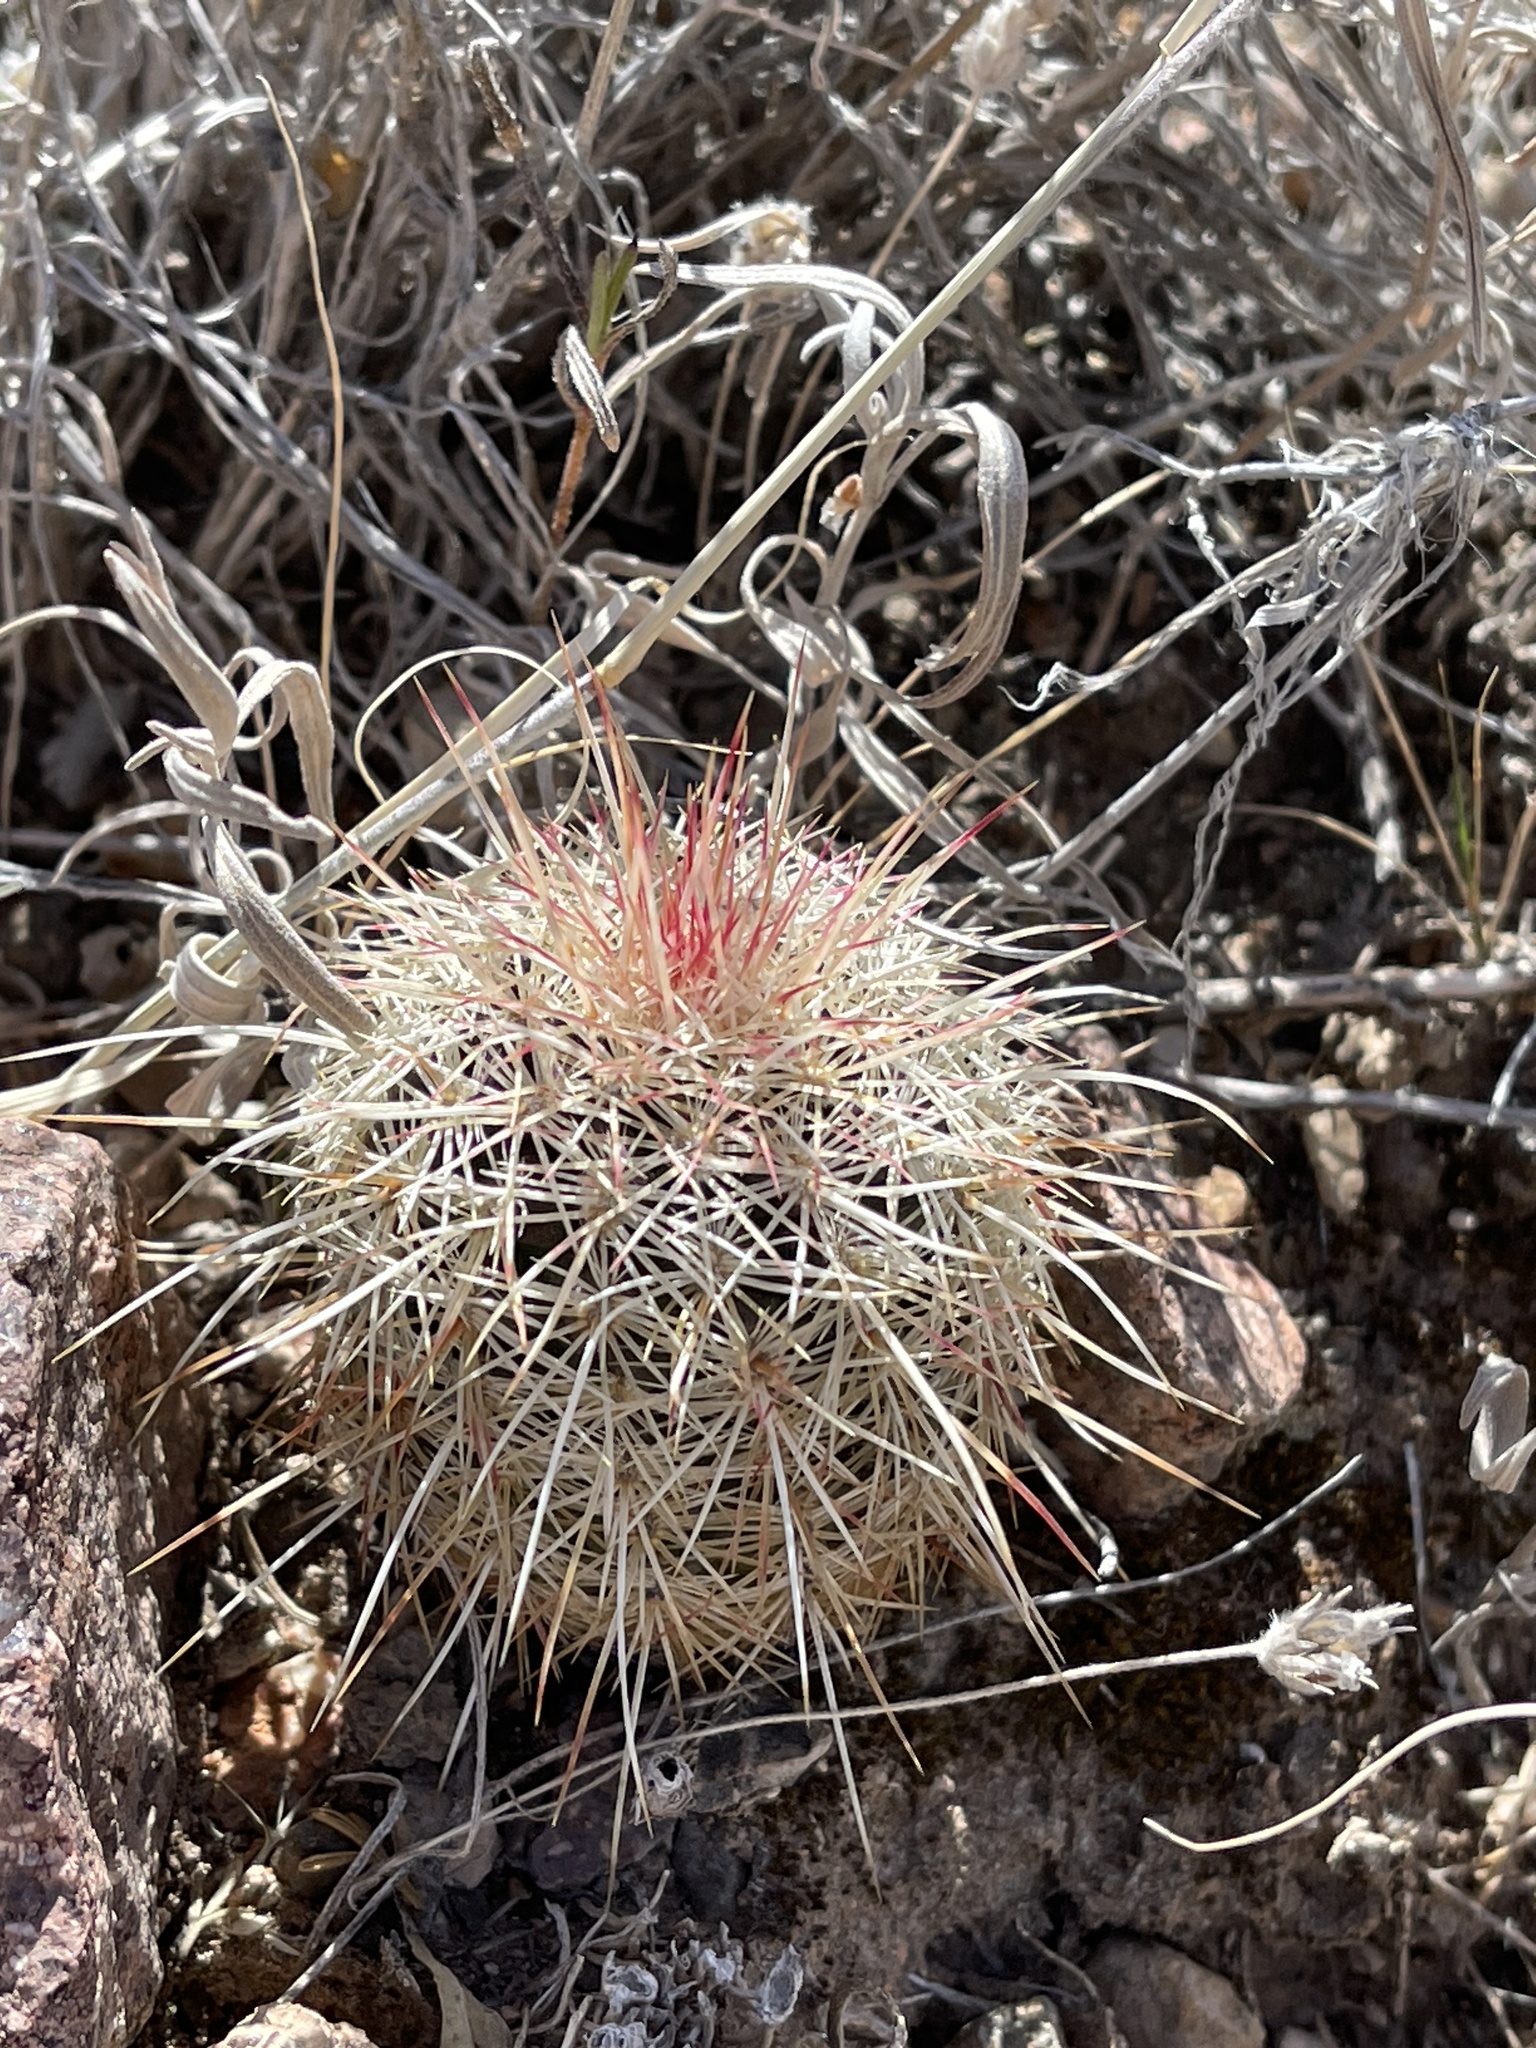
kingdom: Plantae
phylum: Tracheophyta
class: Magnoliopsida
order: Caryophyllales
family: Cactaceae
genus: Echinocereus
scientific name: Echinocereus viridiflorus
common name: Nylon hedgehog cactus
